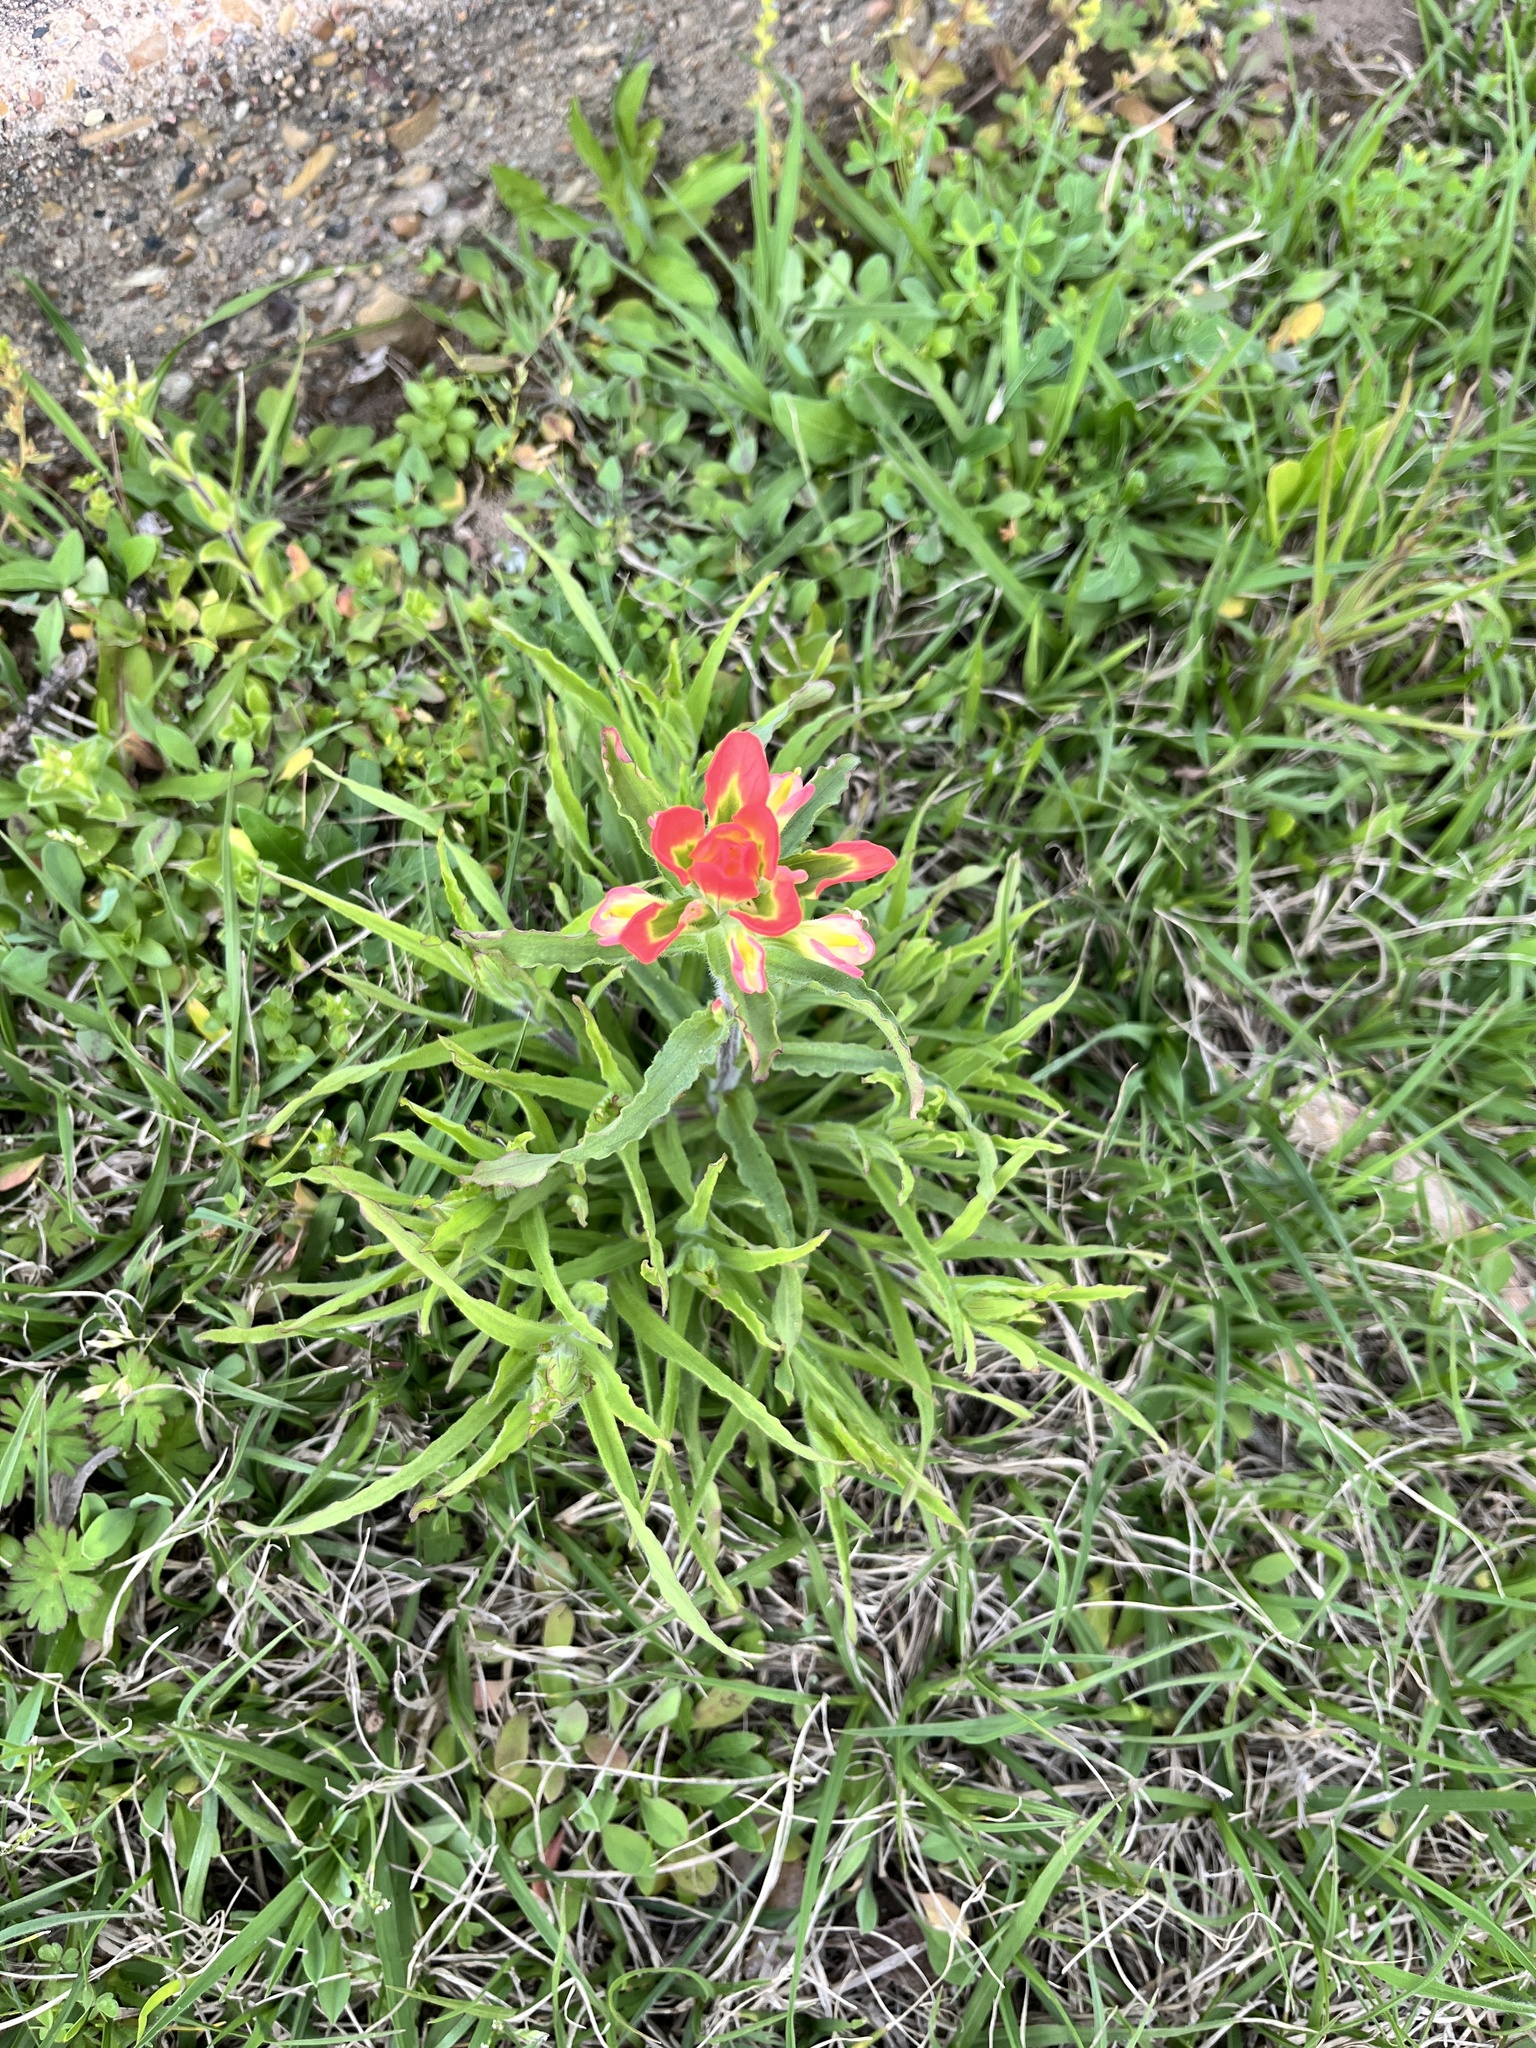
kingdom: Plantae
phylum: Tracheophyta
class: Magnoliopsida
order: Lamiales
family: Orobanchaceae
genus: Castilleja
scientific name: Castilleja indivisa
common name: Texas paintbrush
